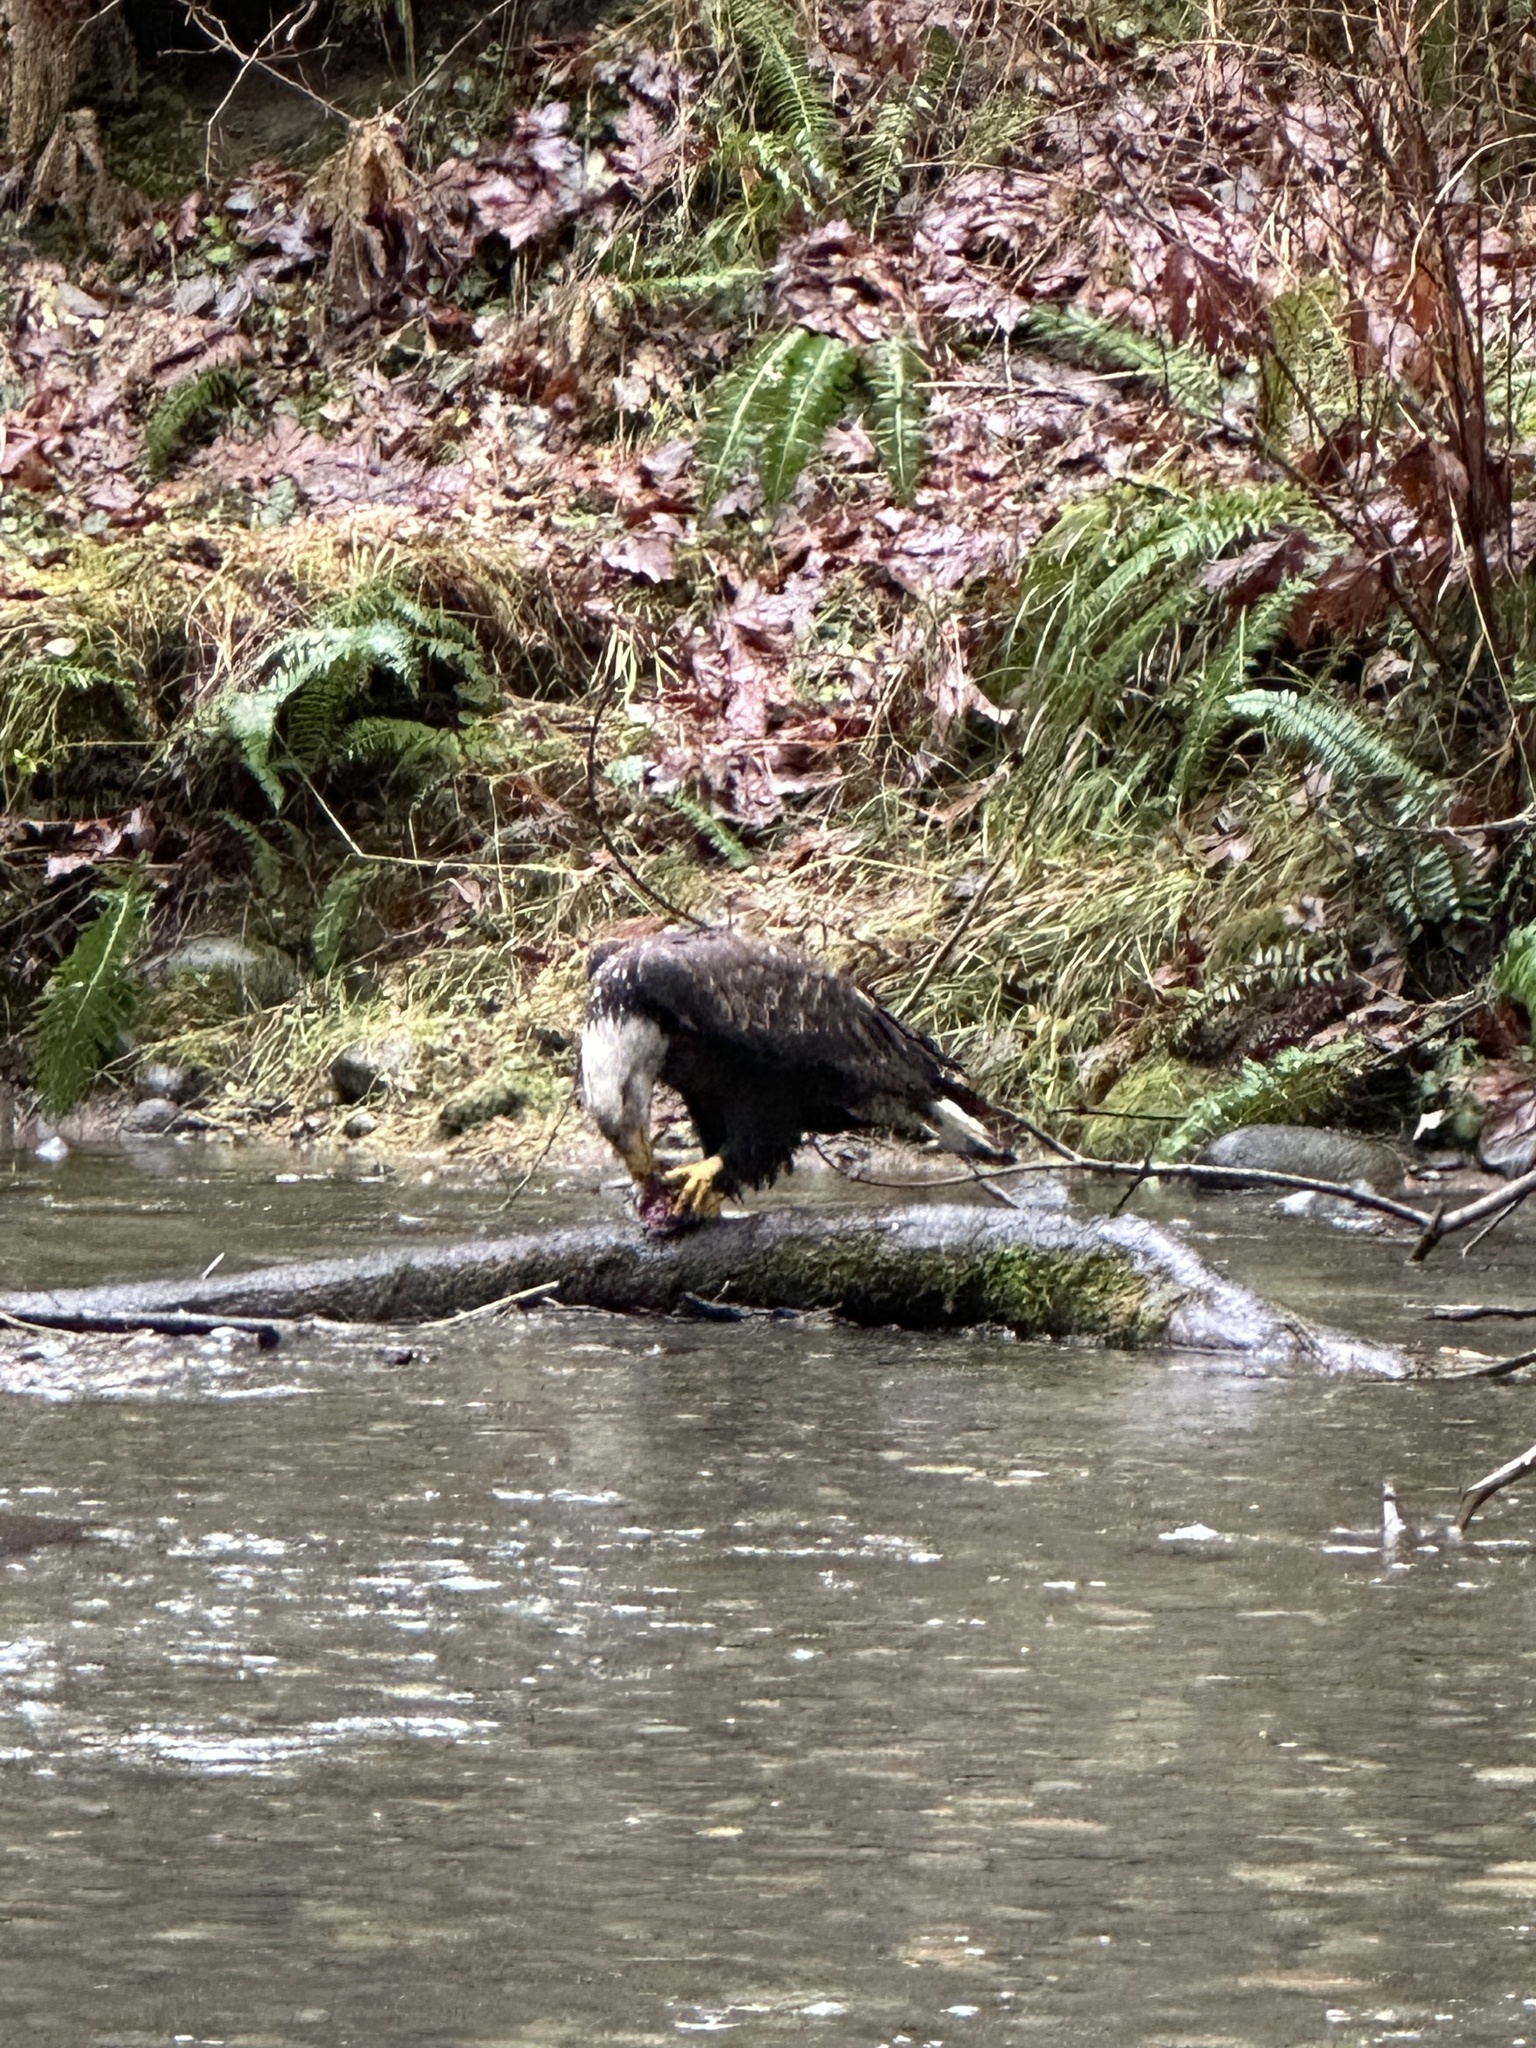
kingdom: Animalia
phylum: Chordata
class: Aves
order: Accipitriformes
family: Accipitridae
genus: Haliaeetus
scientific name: Haliaeetus leucocephalus
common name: Bald eagle
